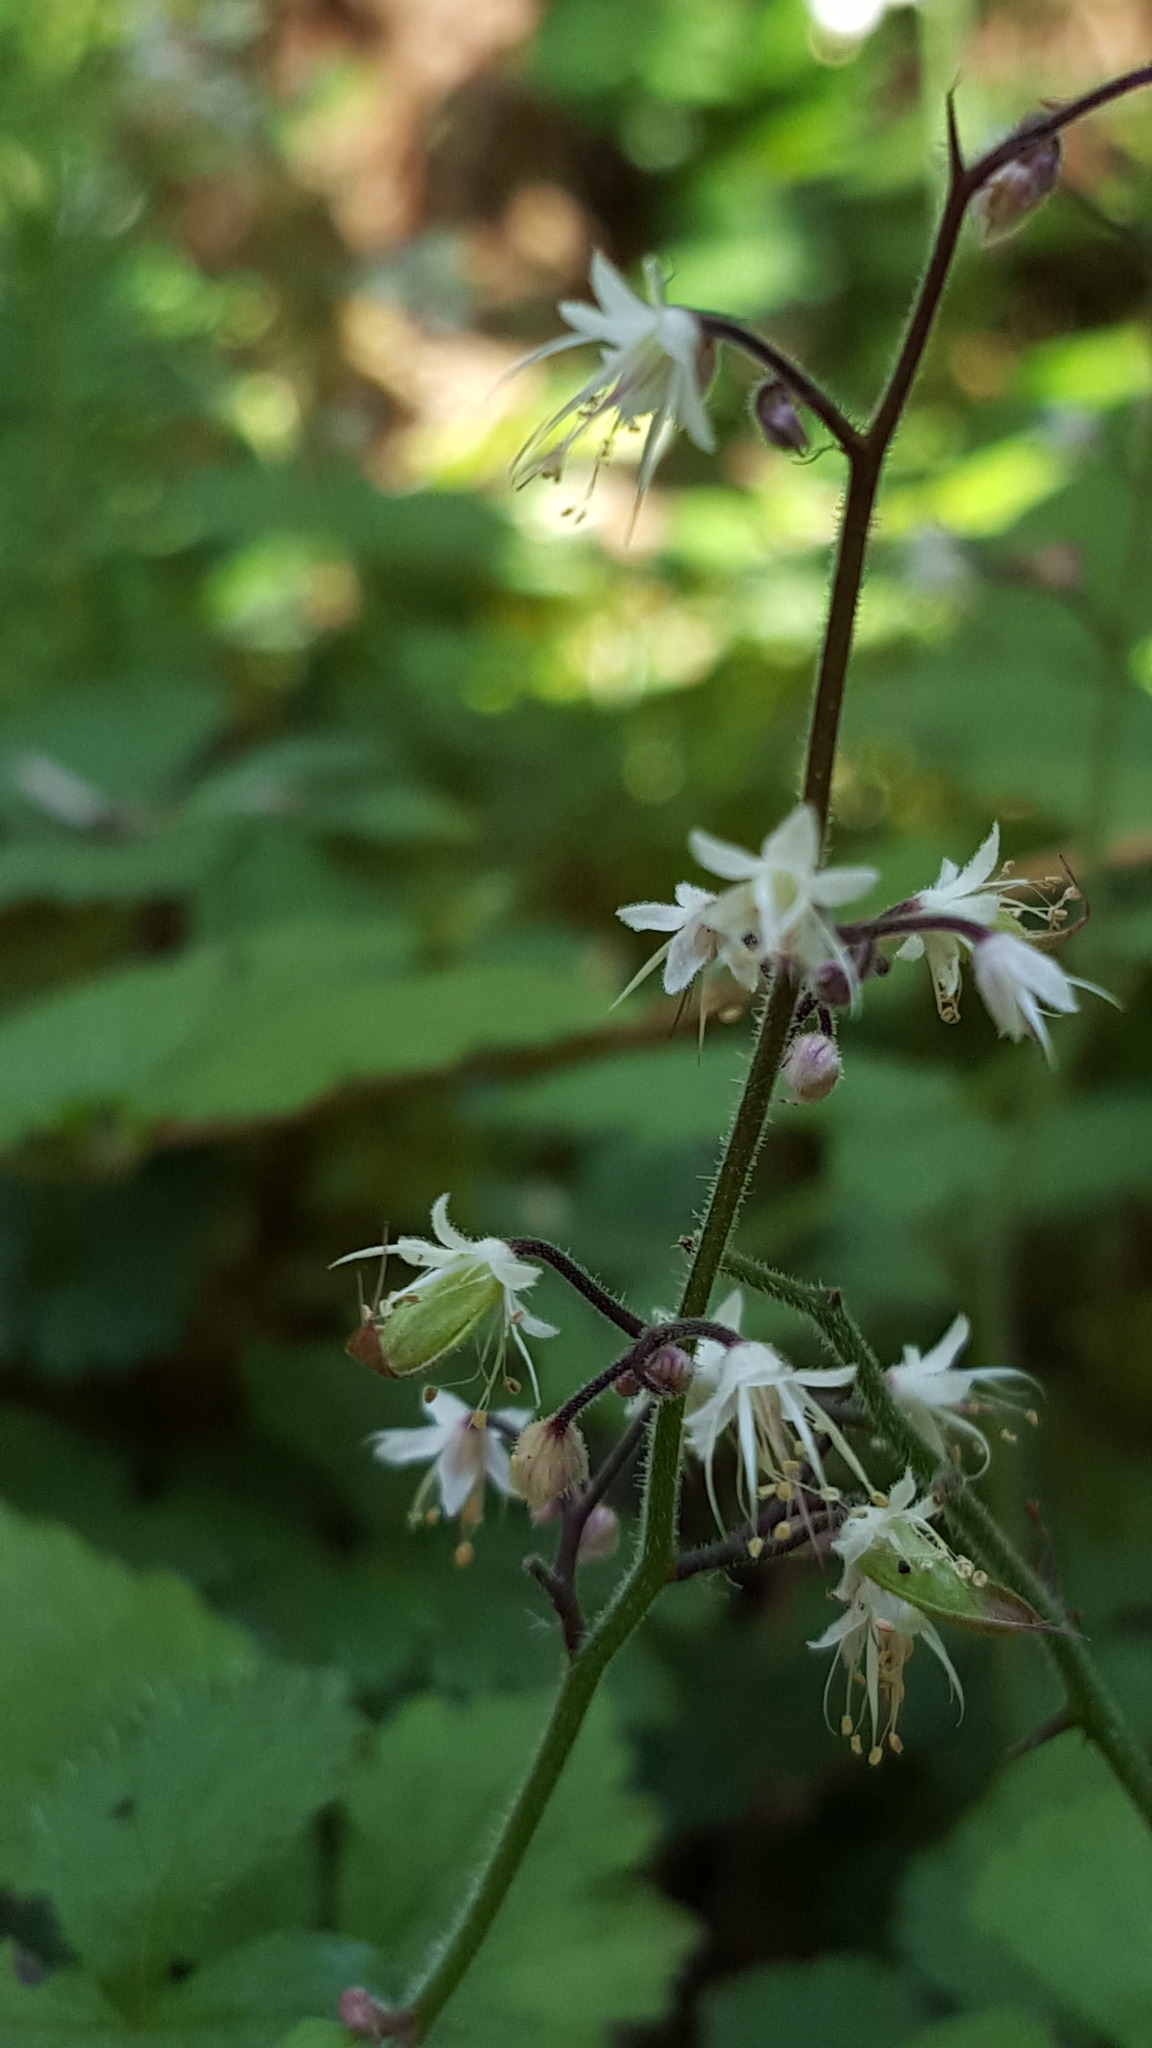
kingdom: Plantae
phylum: Tracheophyta
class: Magnoliopsida
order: Saxifragales
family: Saxifragaceae
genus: Tiarella
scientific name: Tiarella trifoliata
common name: Sugar-scoop
